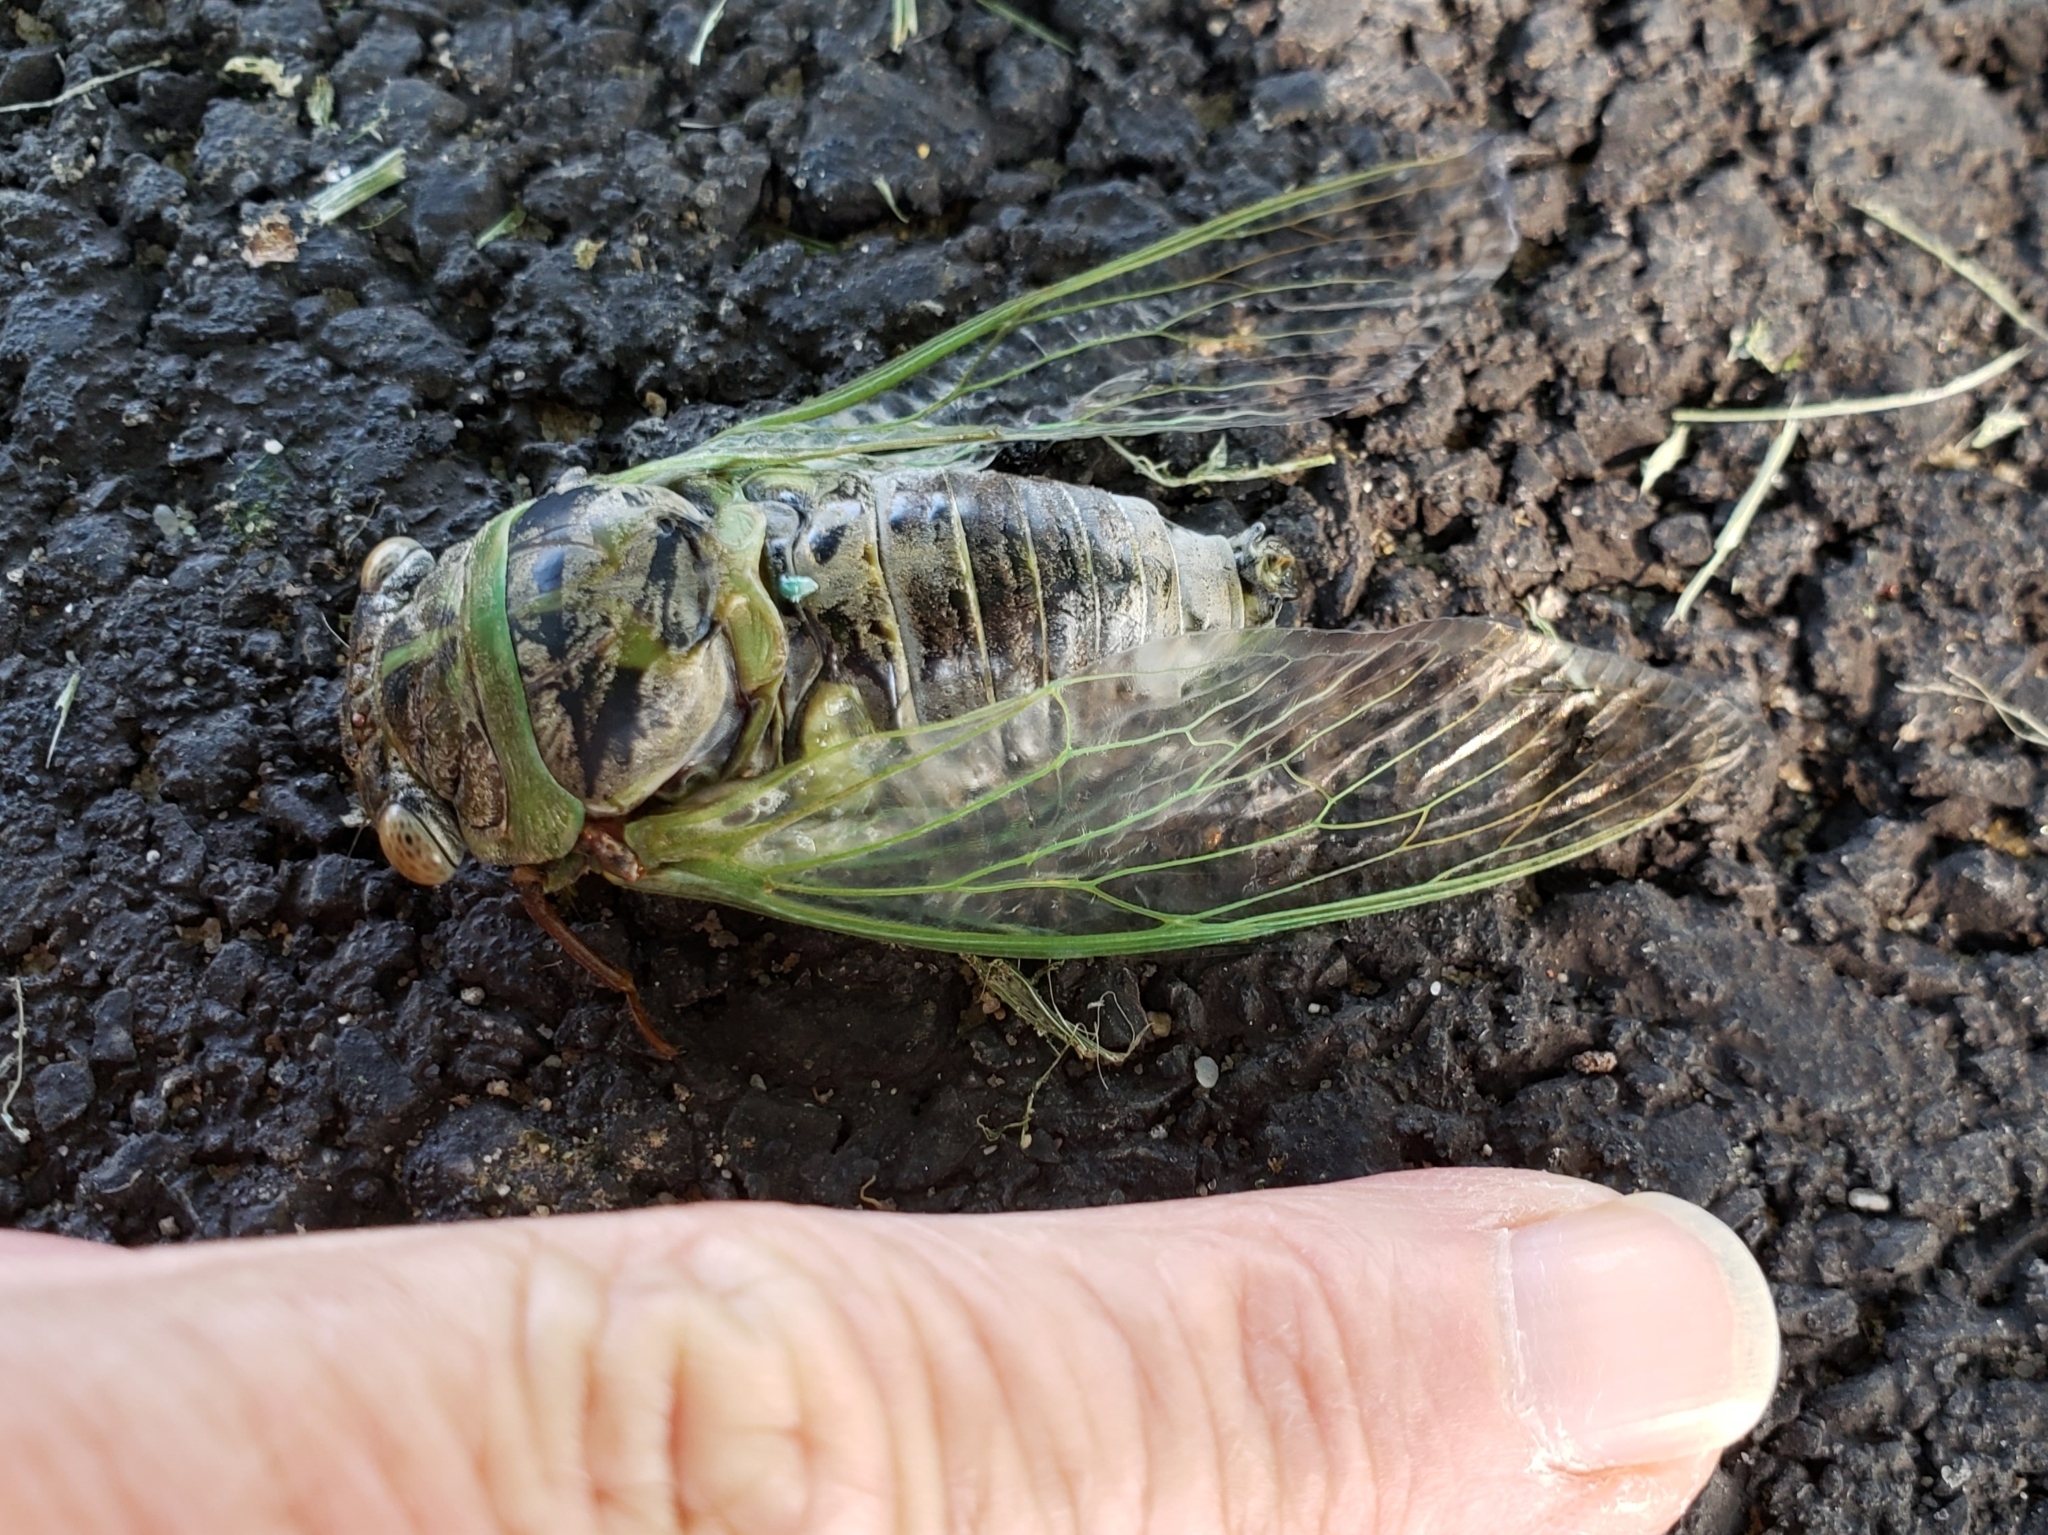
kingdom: Animalia
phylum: Arthropoda
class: Insecta
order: Hemiptera
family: Cicadidae
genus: Diceroprocta
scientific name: Diceroprocta grossa
